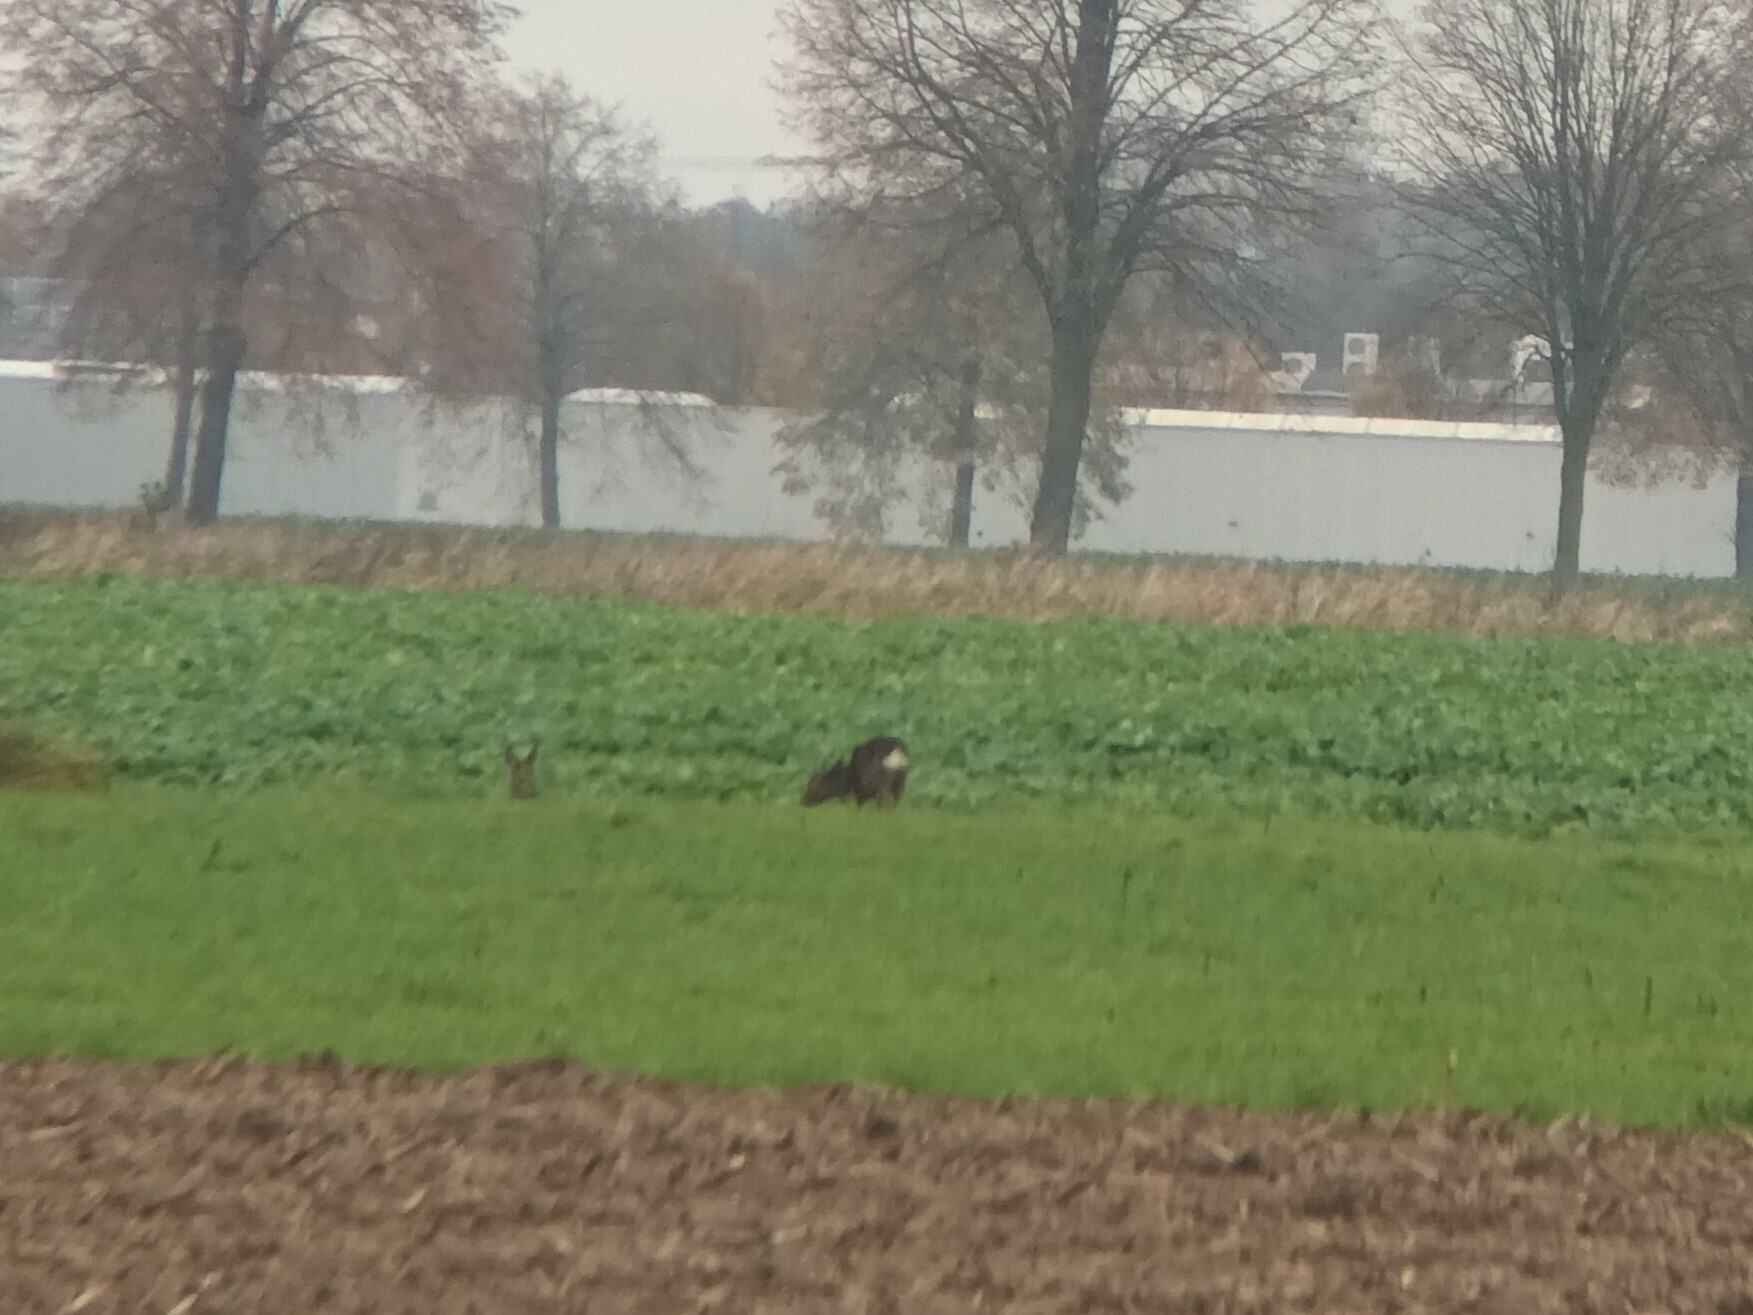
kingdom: Animalia
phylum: Chordata
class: Mammalia
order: Artiodactyla
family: Cervidae
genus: Capreolus
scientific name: Capreolus capreolus
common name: Western roe deer
